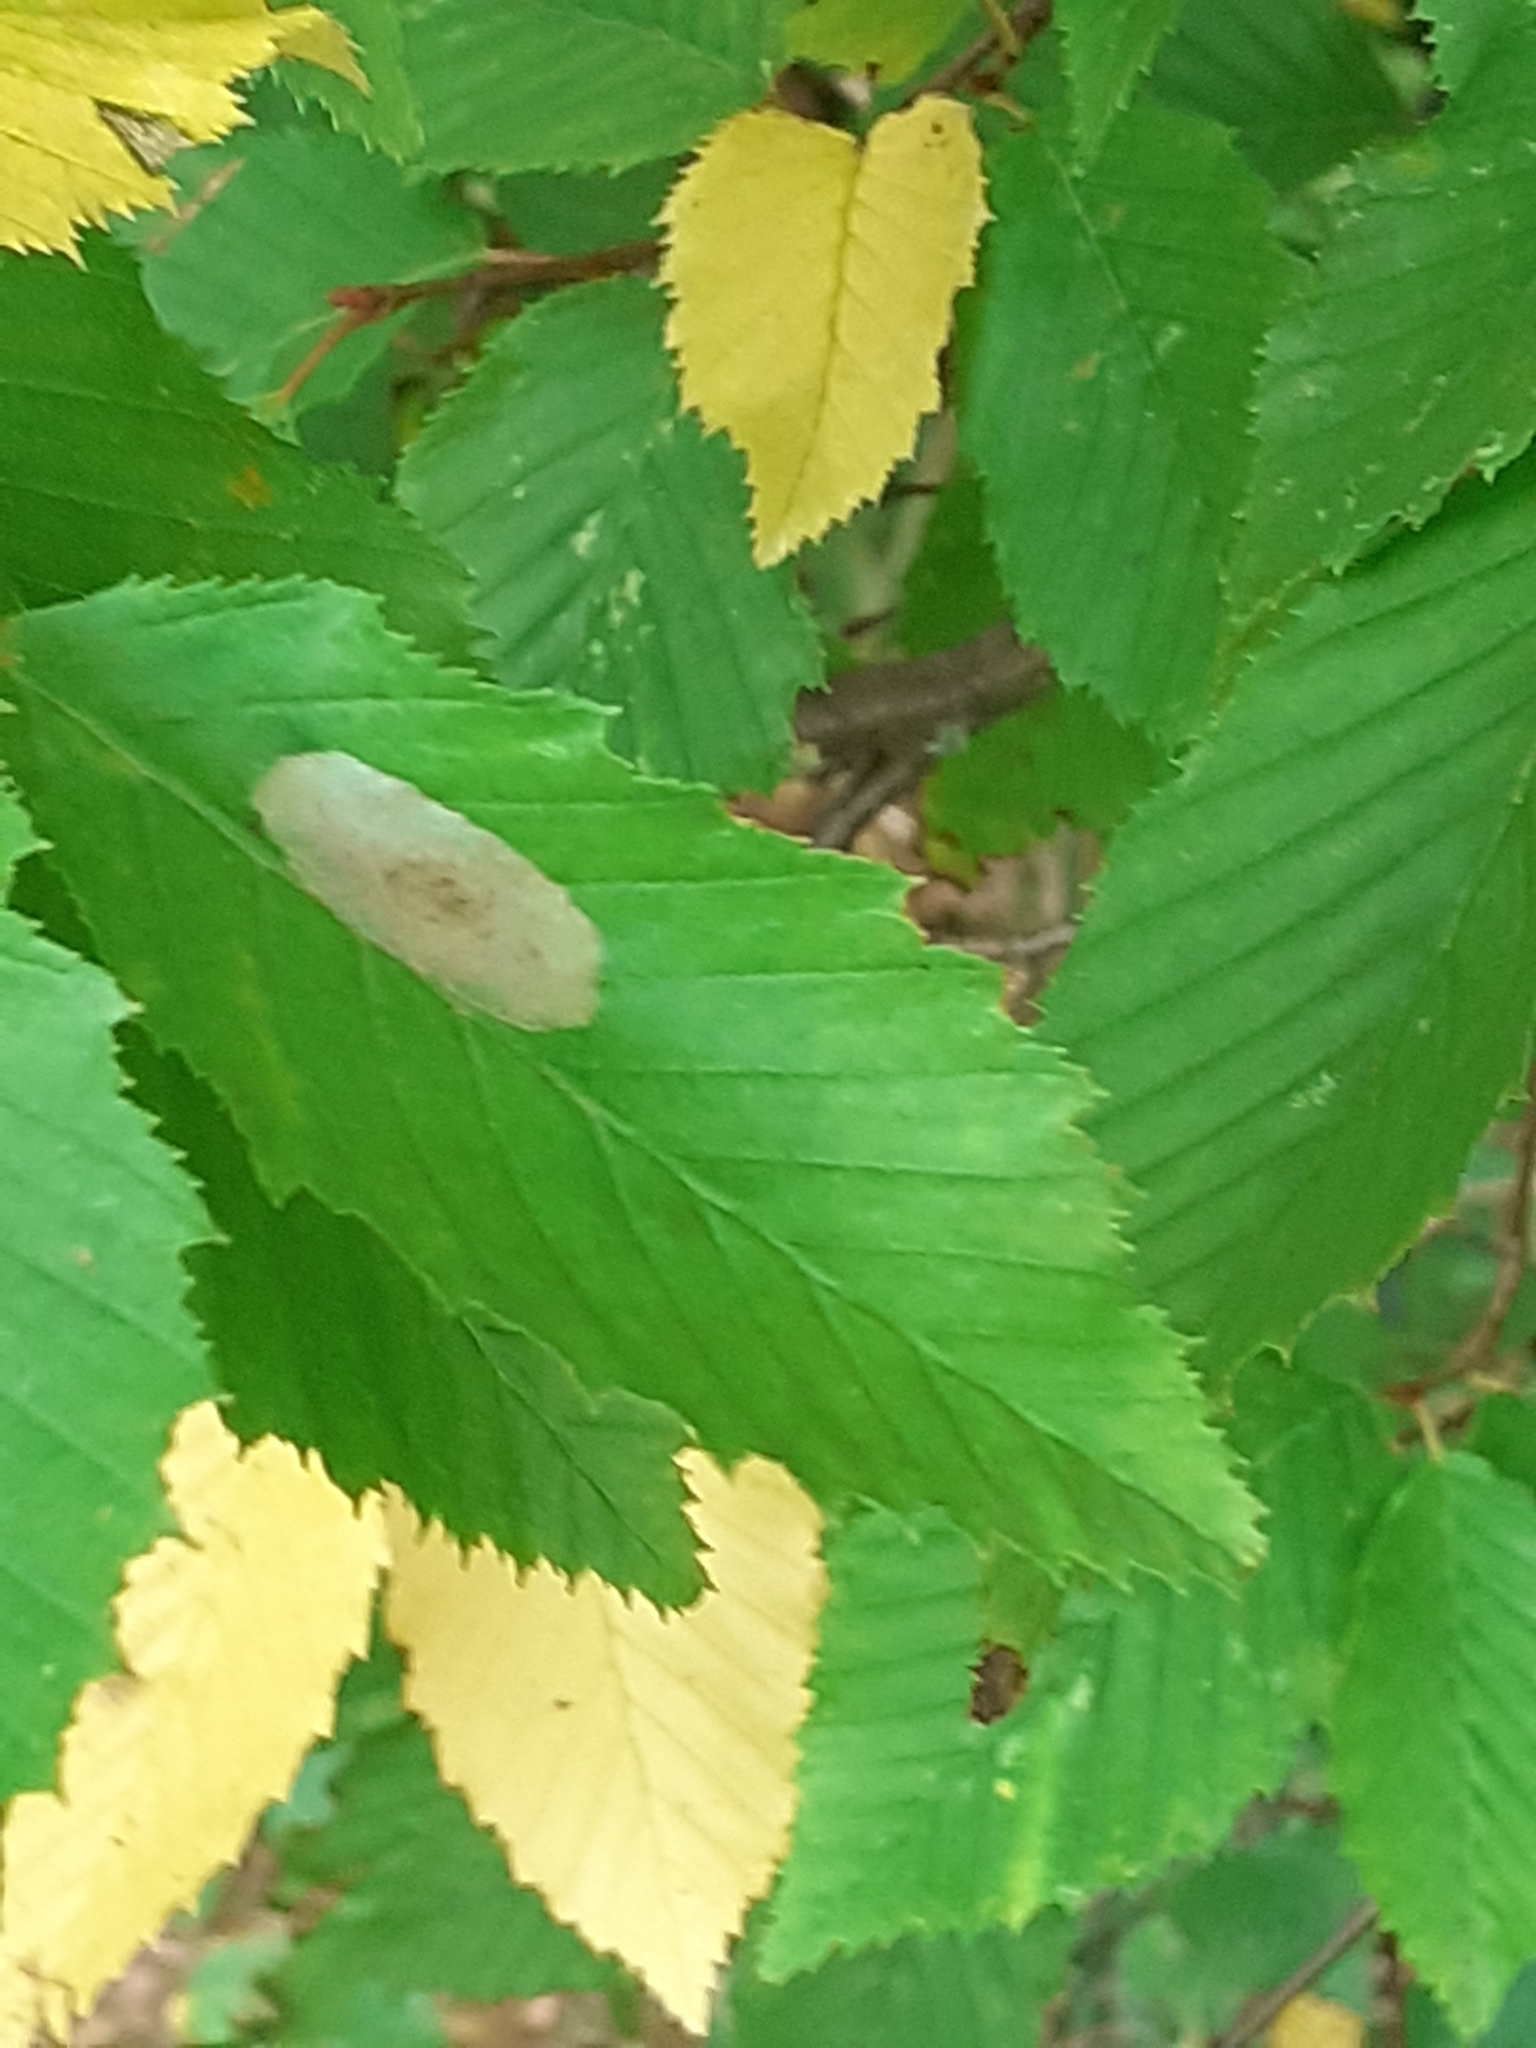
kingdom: Animalia
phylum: Arthropoda
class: Insecta
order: Lepidoptera
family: Gracillariidae
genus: Phyllonorycter
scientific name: Phyllonorycter esperella
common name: Dark hornbeam midget
